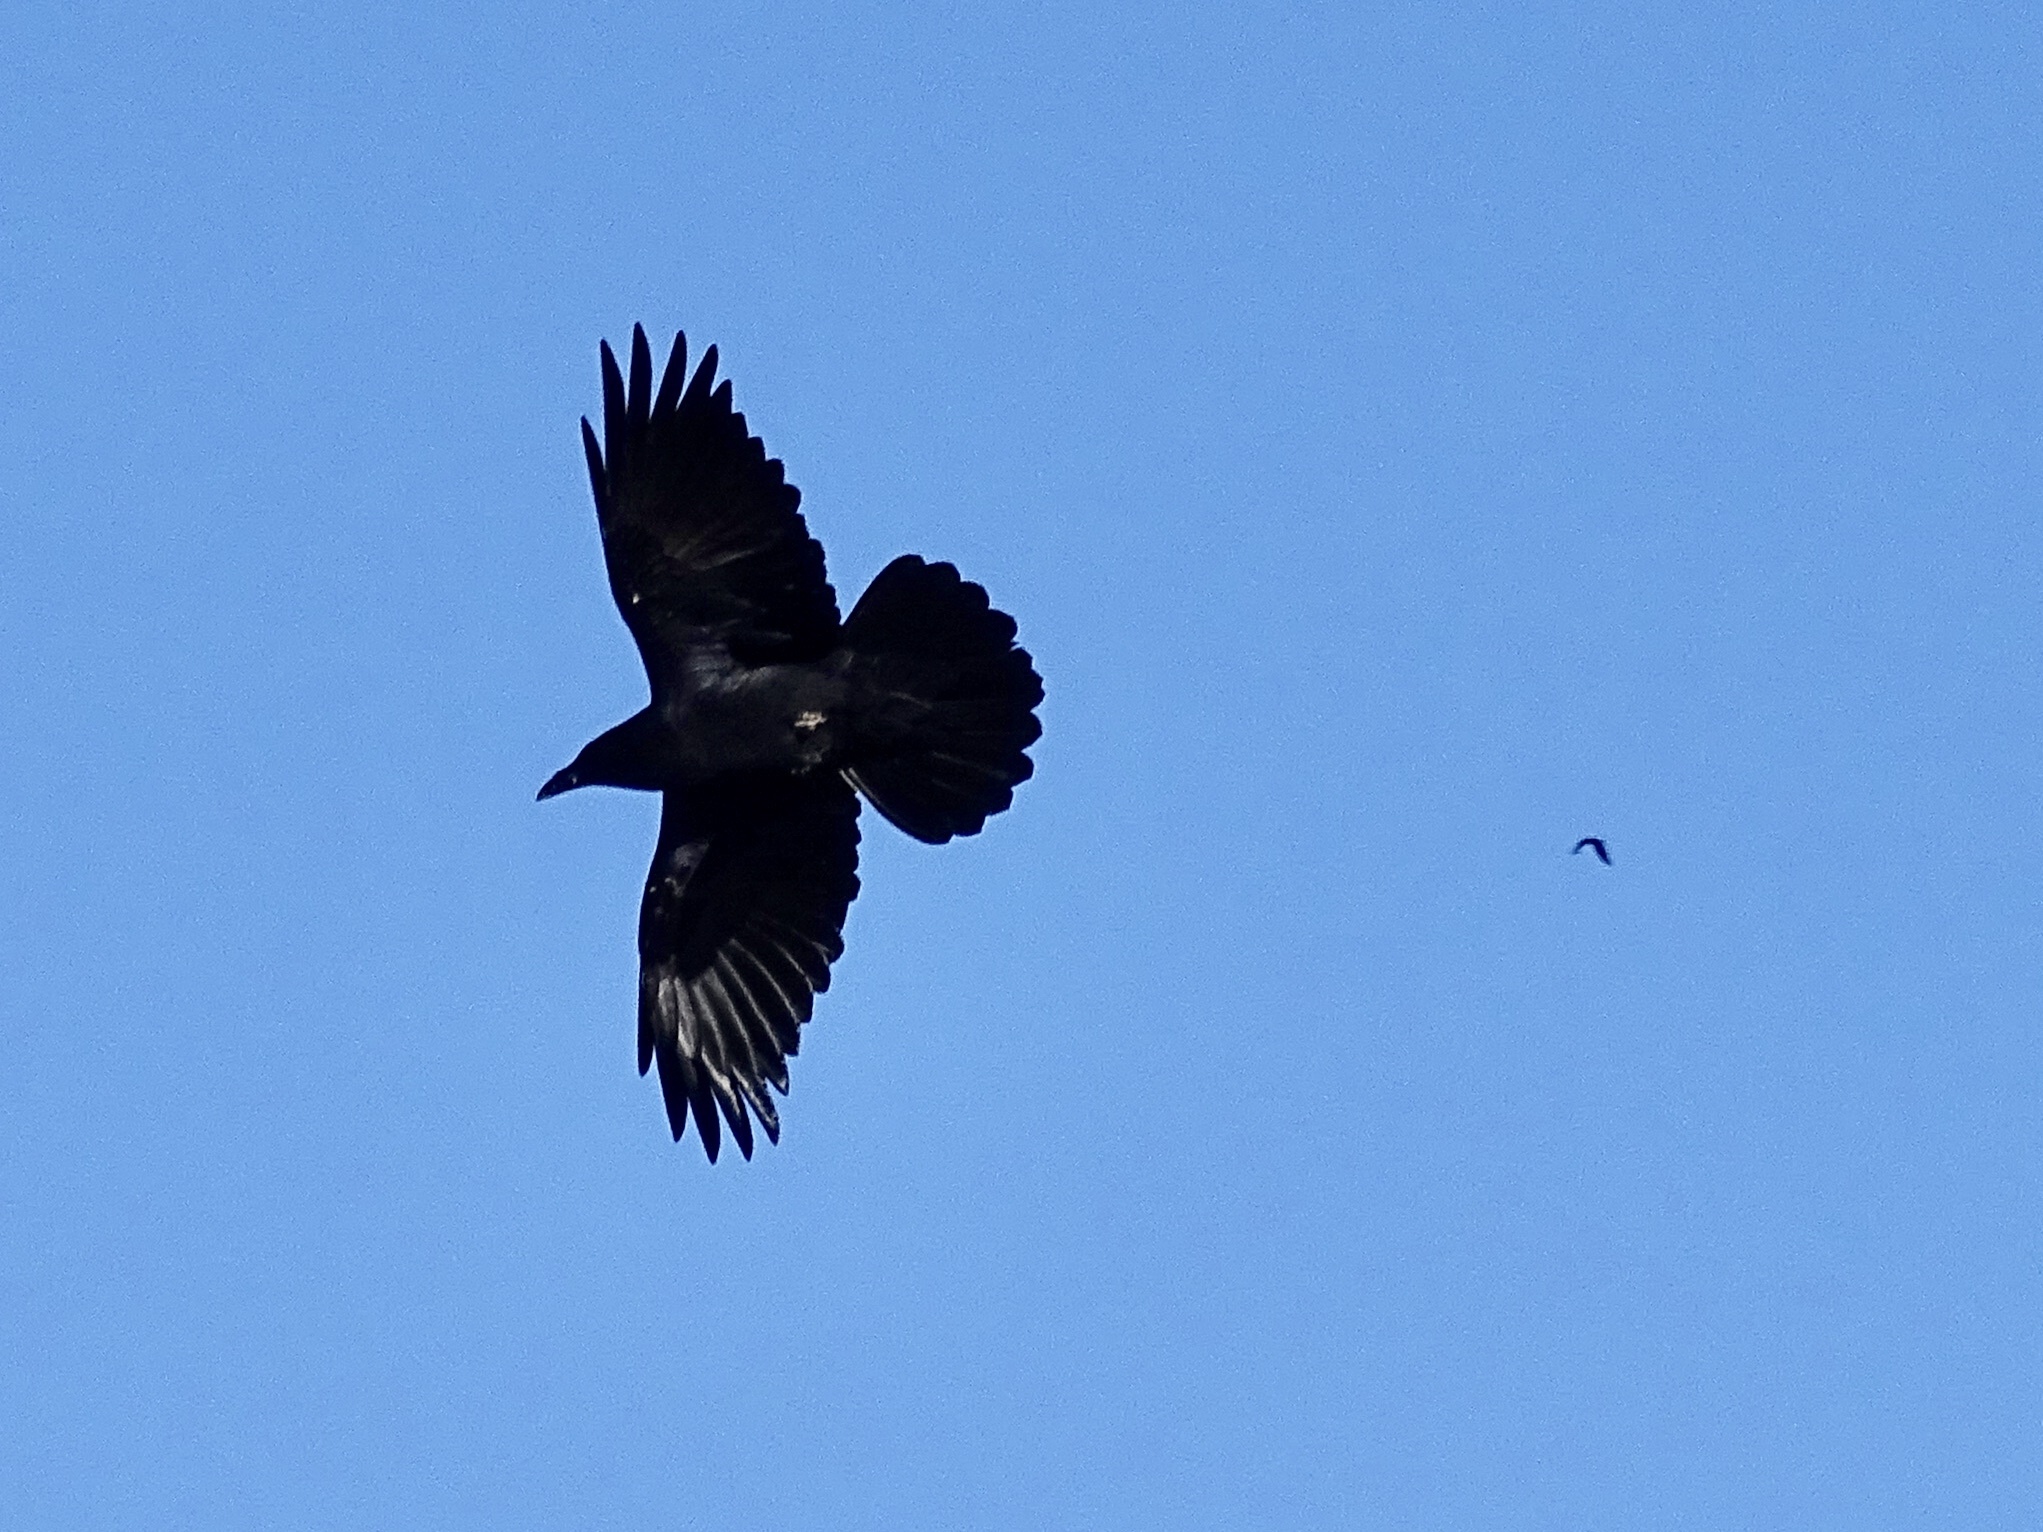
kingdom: Animalia
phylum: Chordata
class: Aves
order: Passeriformes
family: Corvidae
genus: Corvus
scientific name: Corvus corax
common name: Common raven
